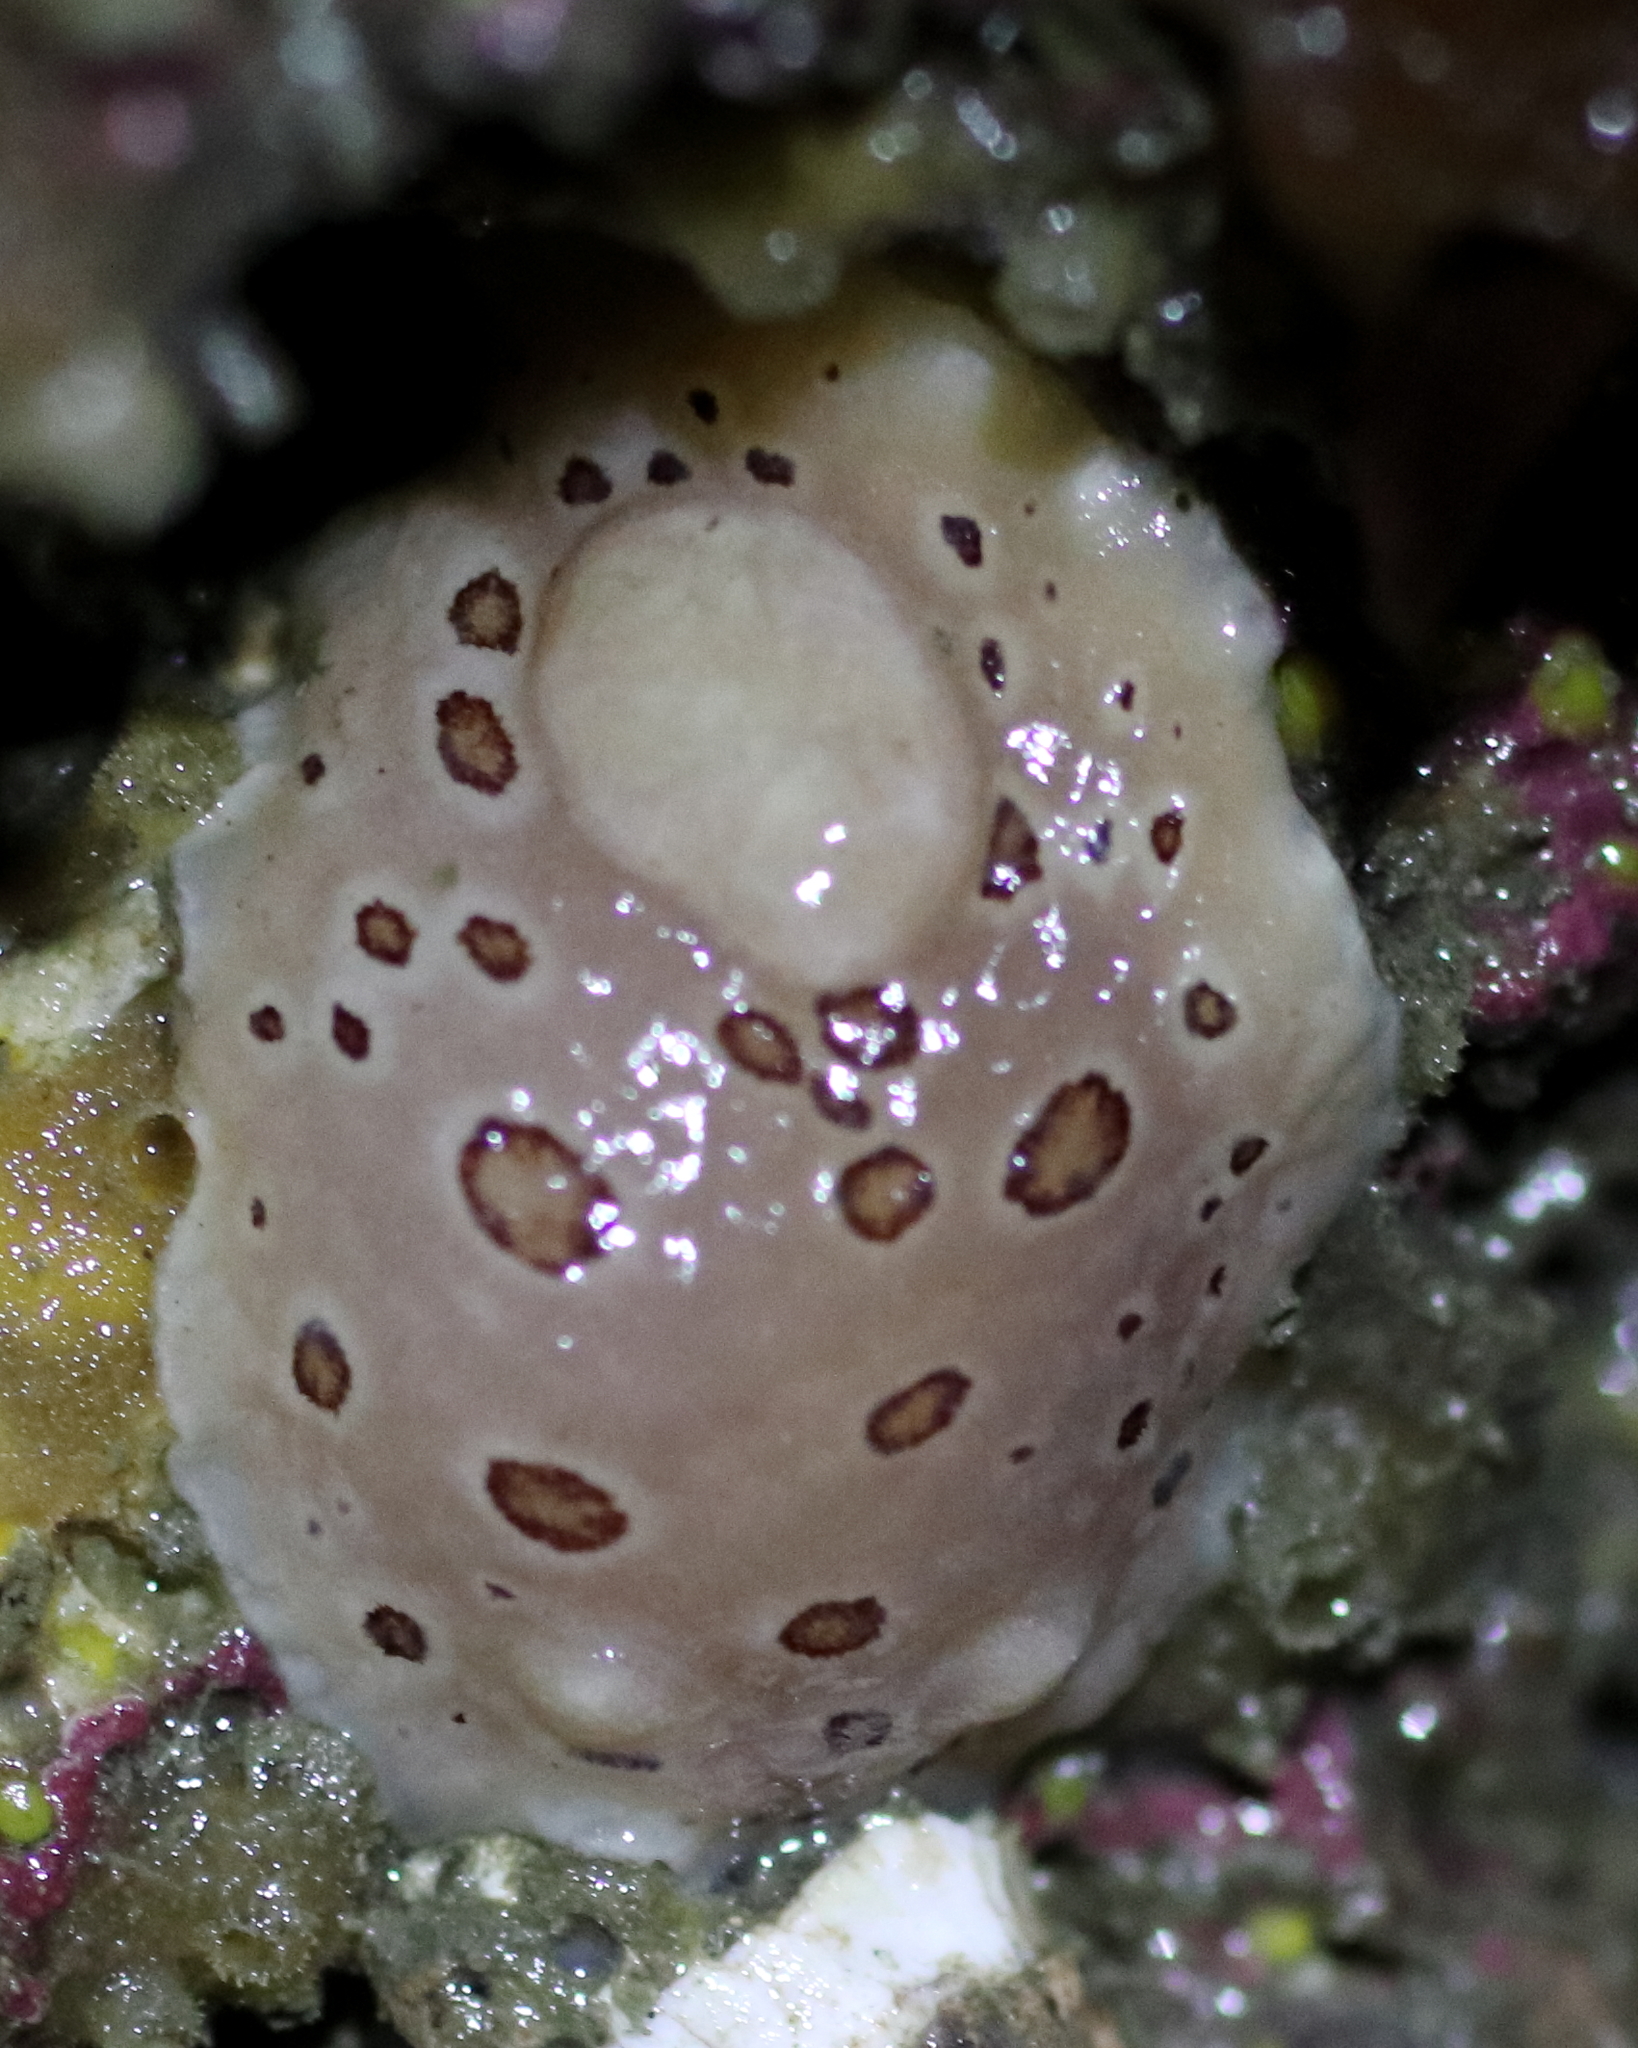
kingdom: Animalia
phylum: Mollusca
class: Gastropoda
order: Nudibranchia
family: Discodorididae
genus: Diaulula
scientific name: Diaulula odonoghuei
